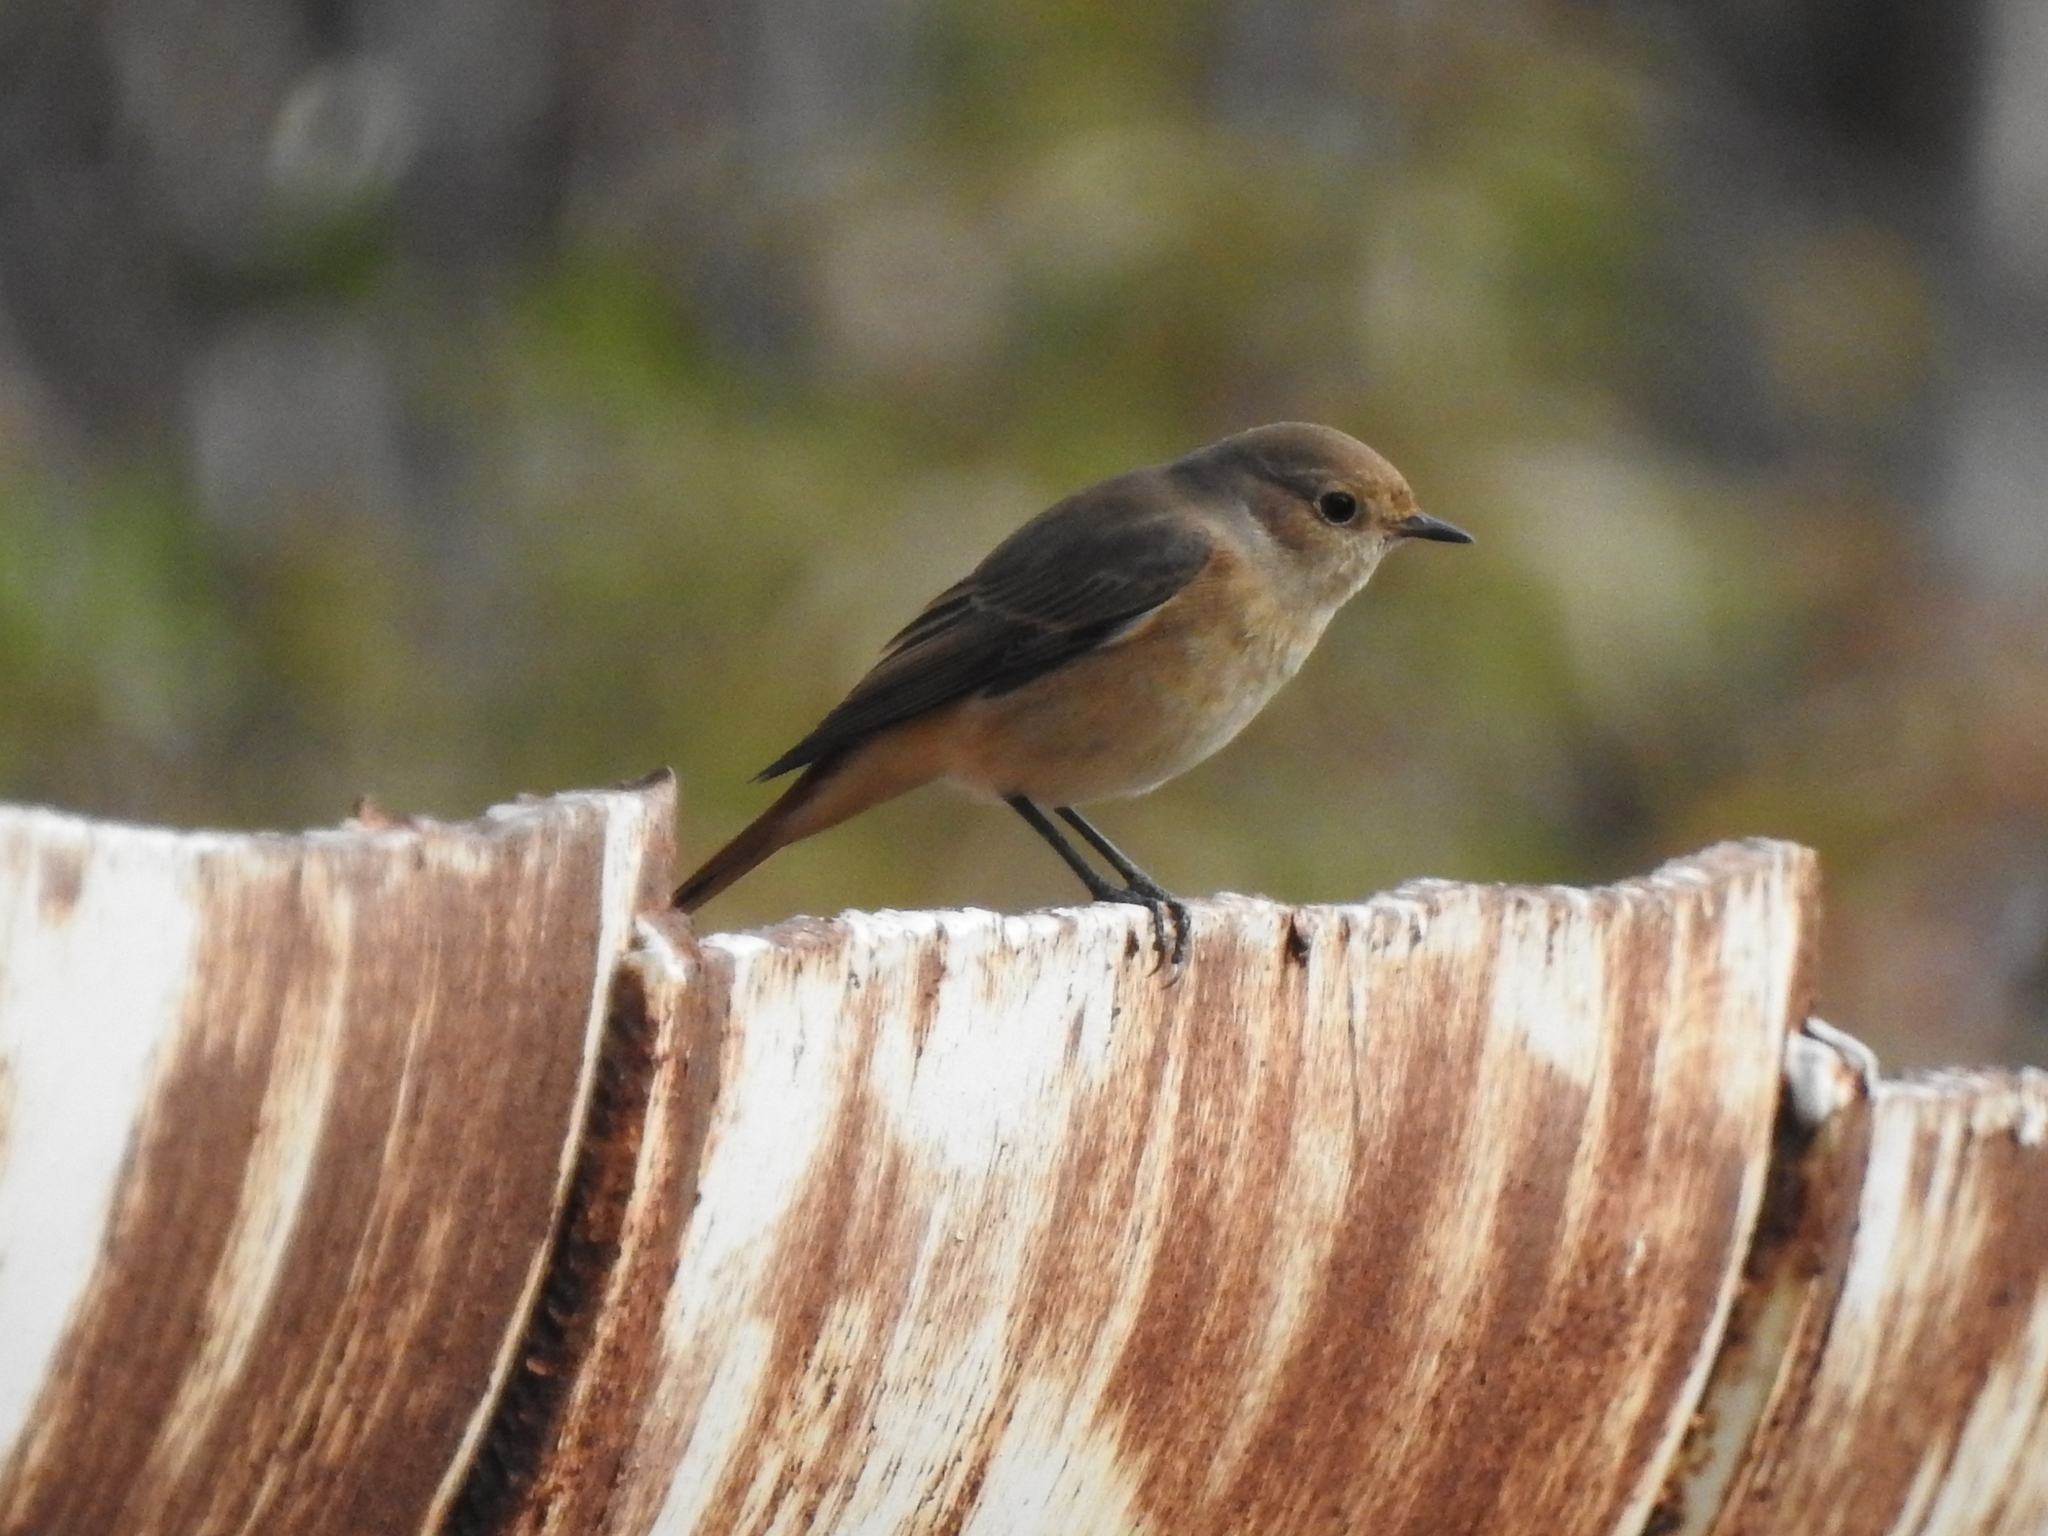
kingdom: Animalia
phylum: Chordata
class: Aves
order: Passeriformes
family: Muscicapidae
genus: Phoenicurus
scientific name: Phoenicurus phoenicurus
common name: Common redstart
